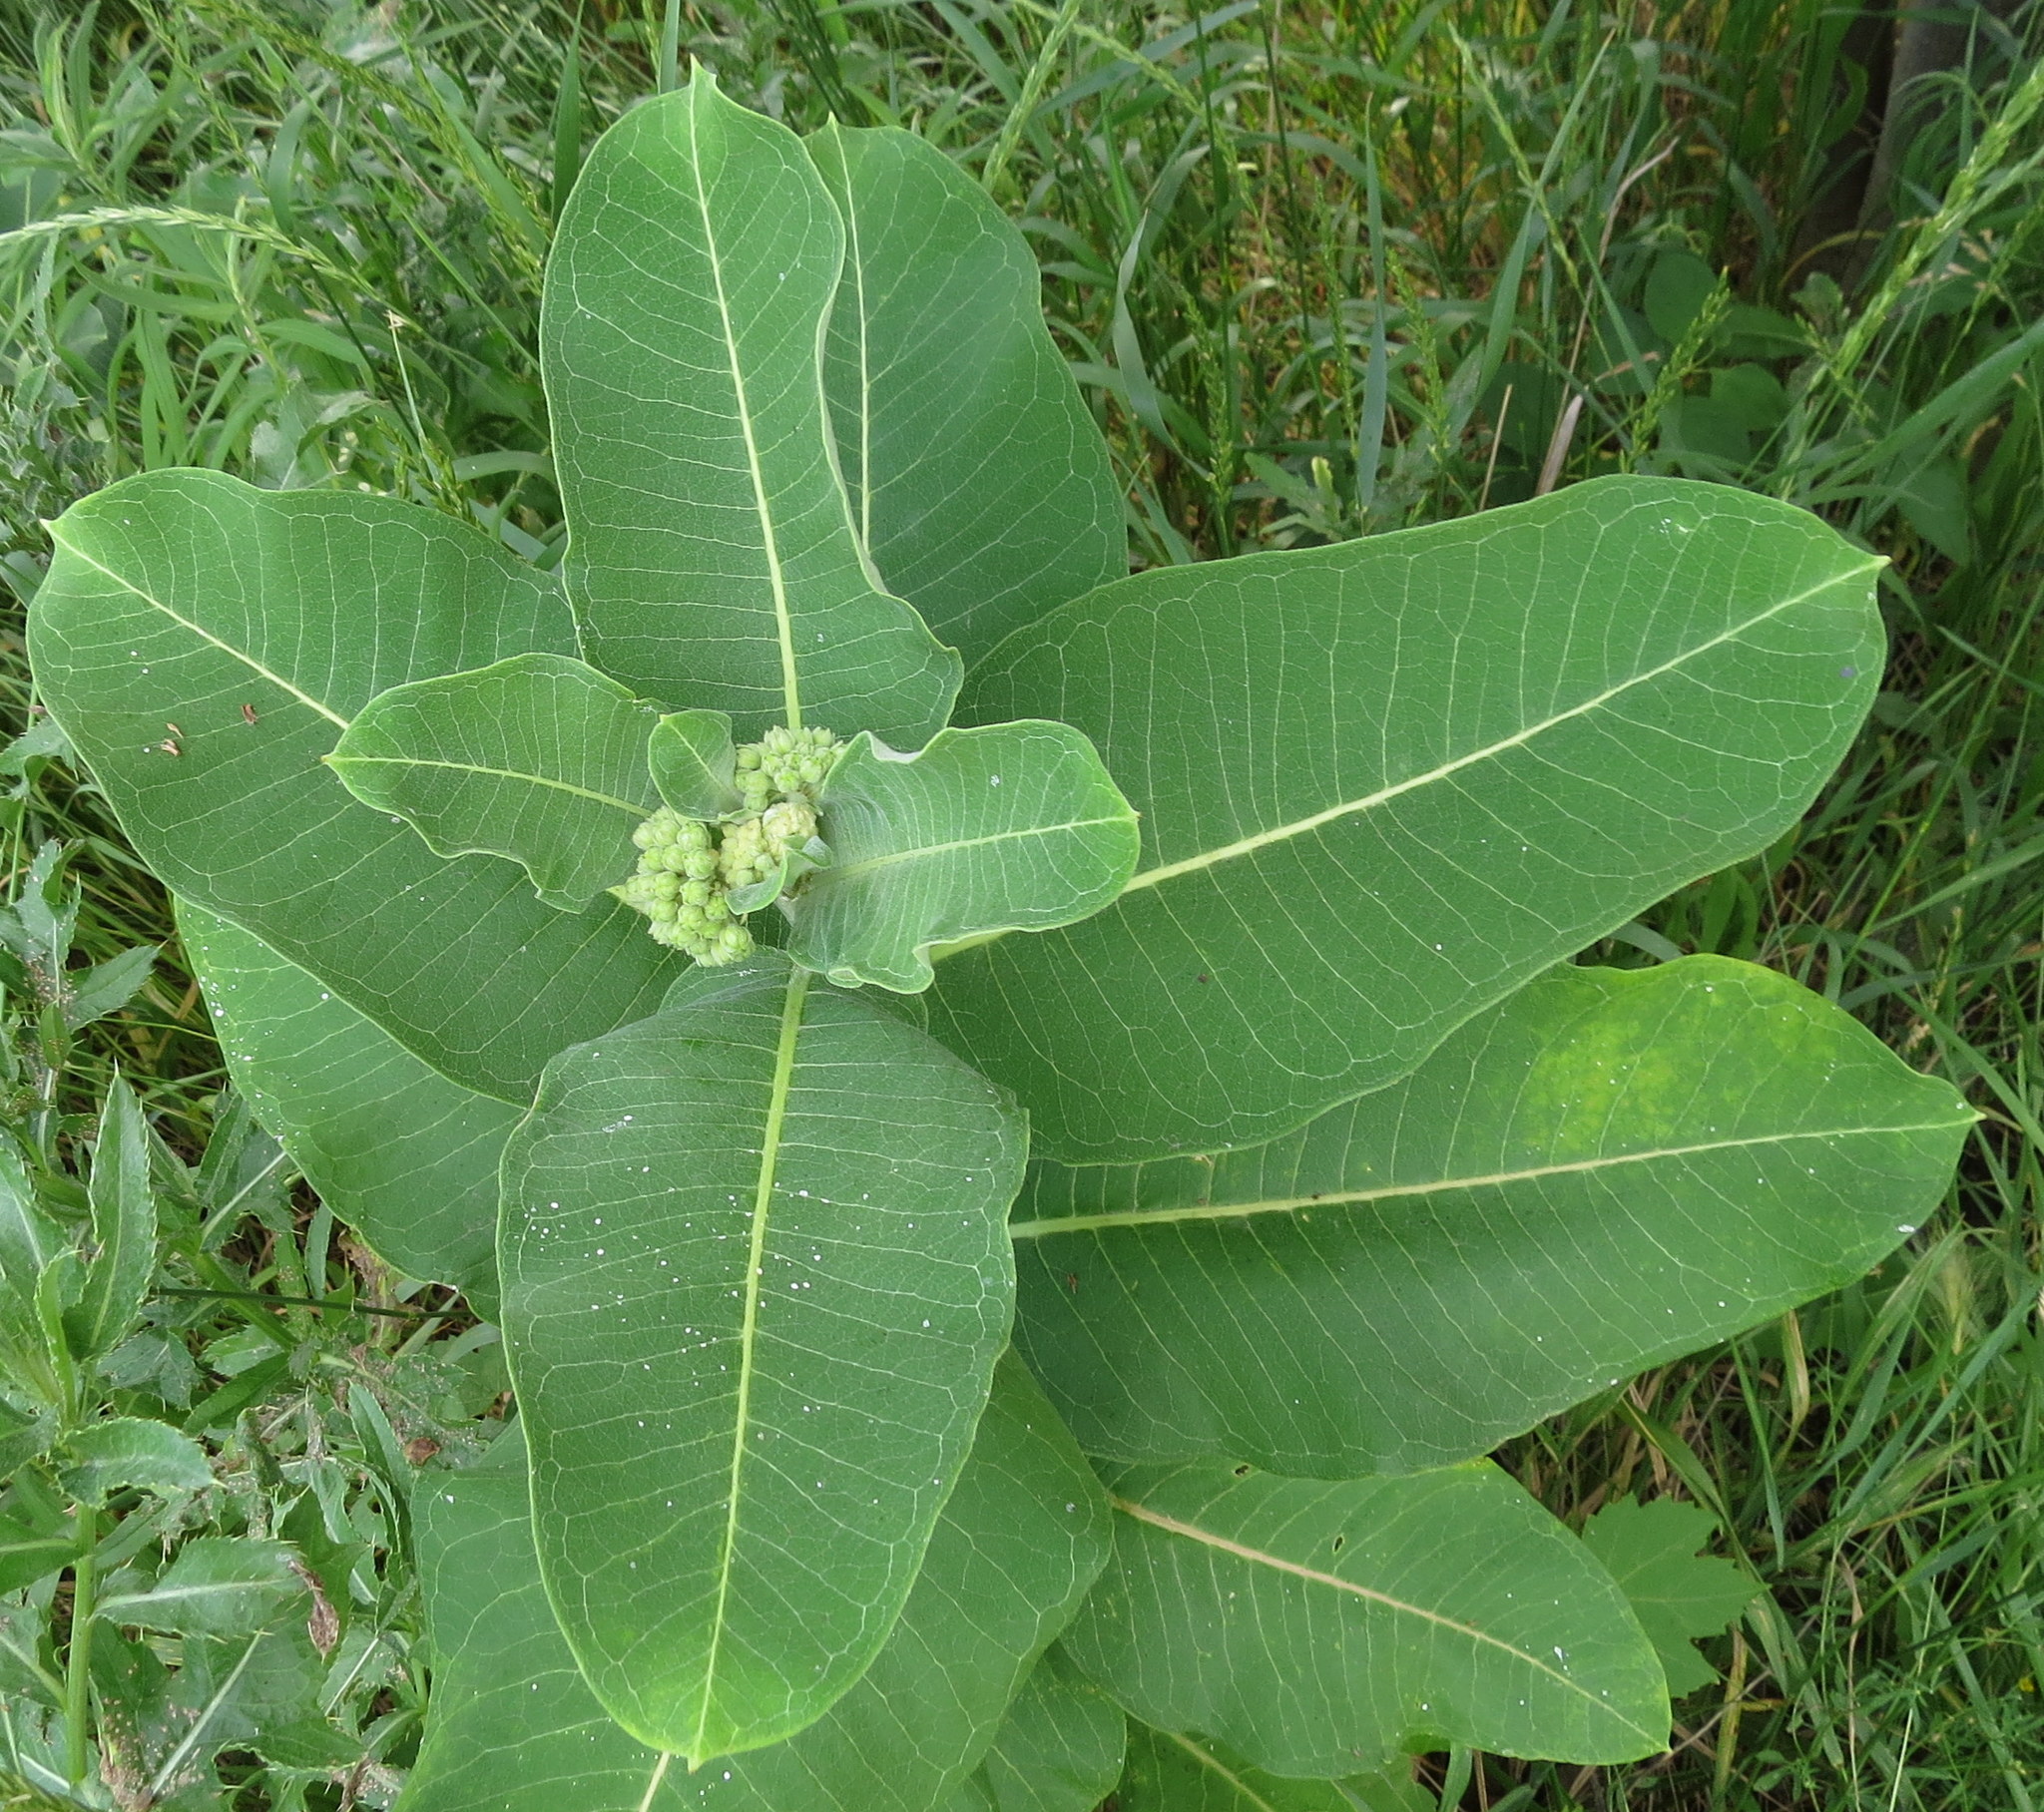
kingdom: Plantae
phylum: Tracheophyta
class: Magnoliopsida
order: Gentianales
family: Apocynaceae
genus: Asclepias
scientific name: Asclepias syriaca
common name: Common milkweed
